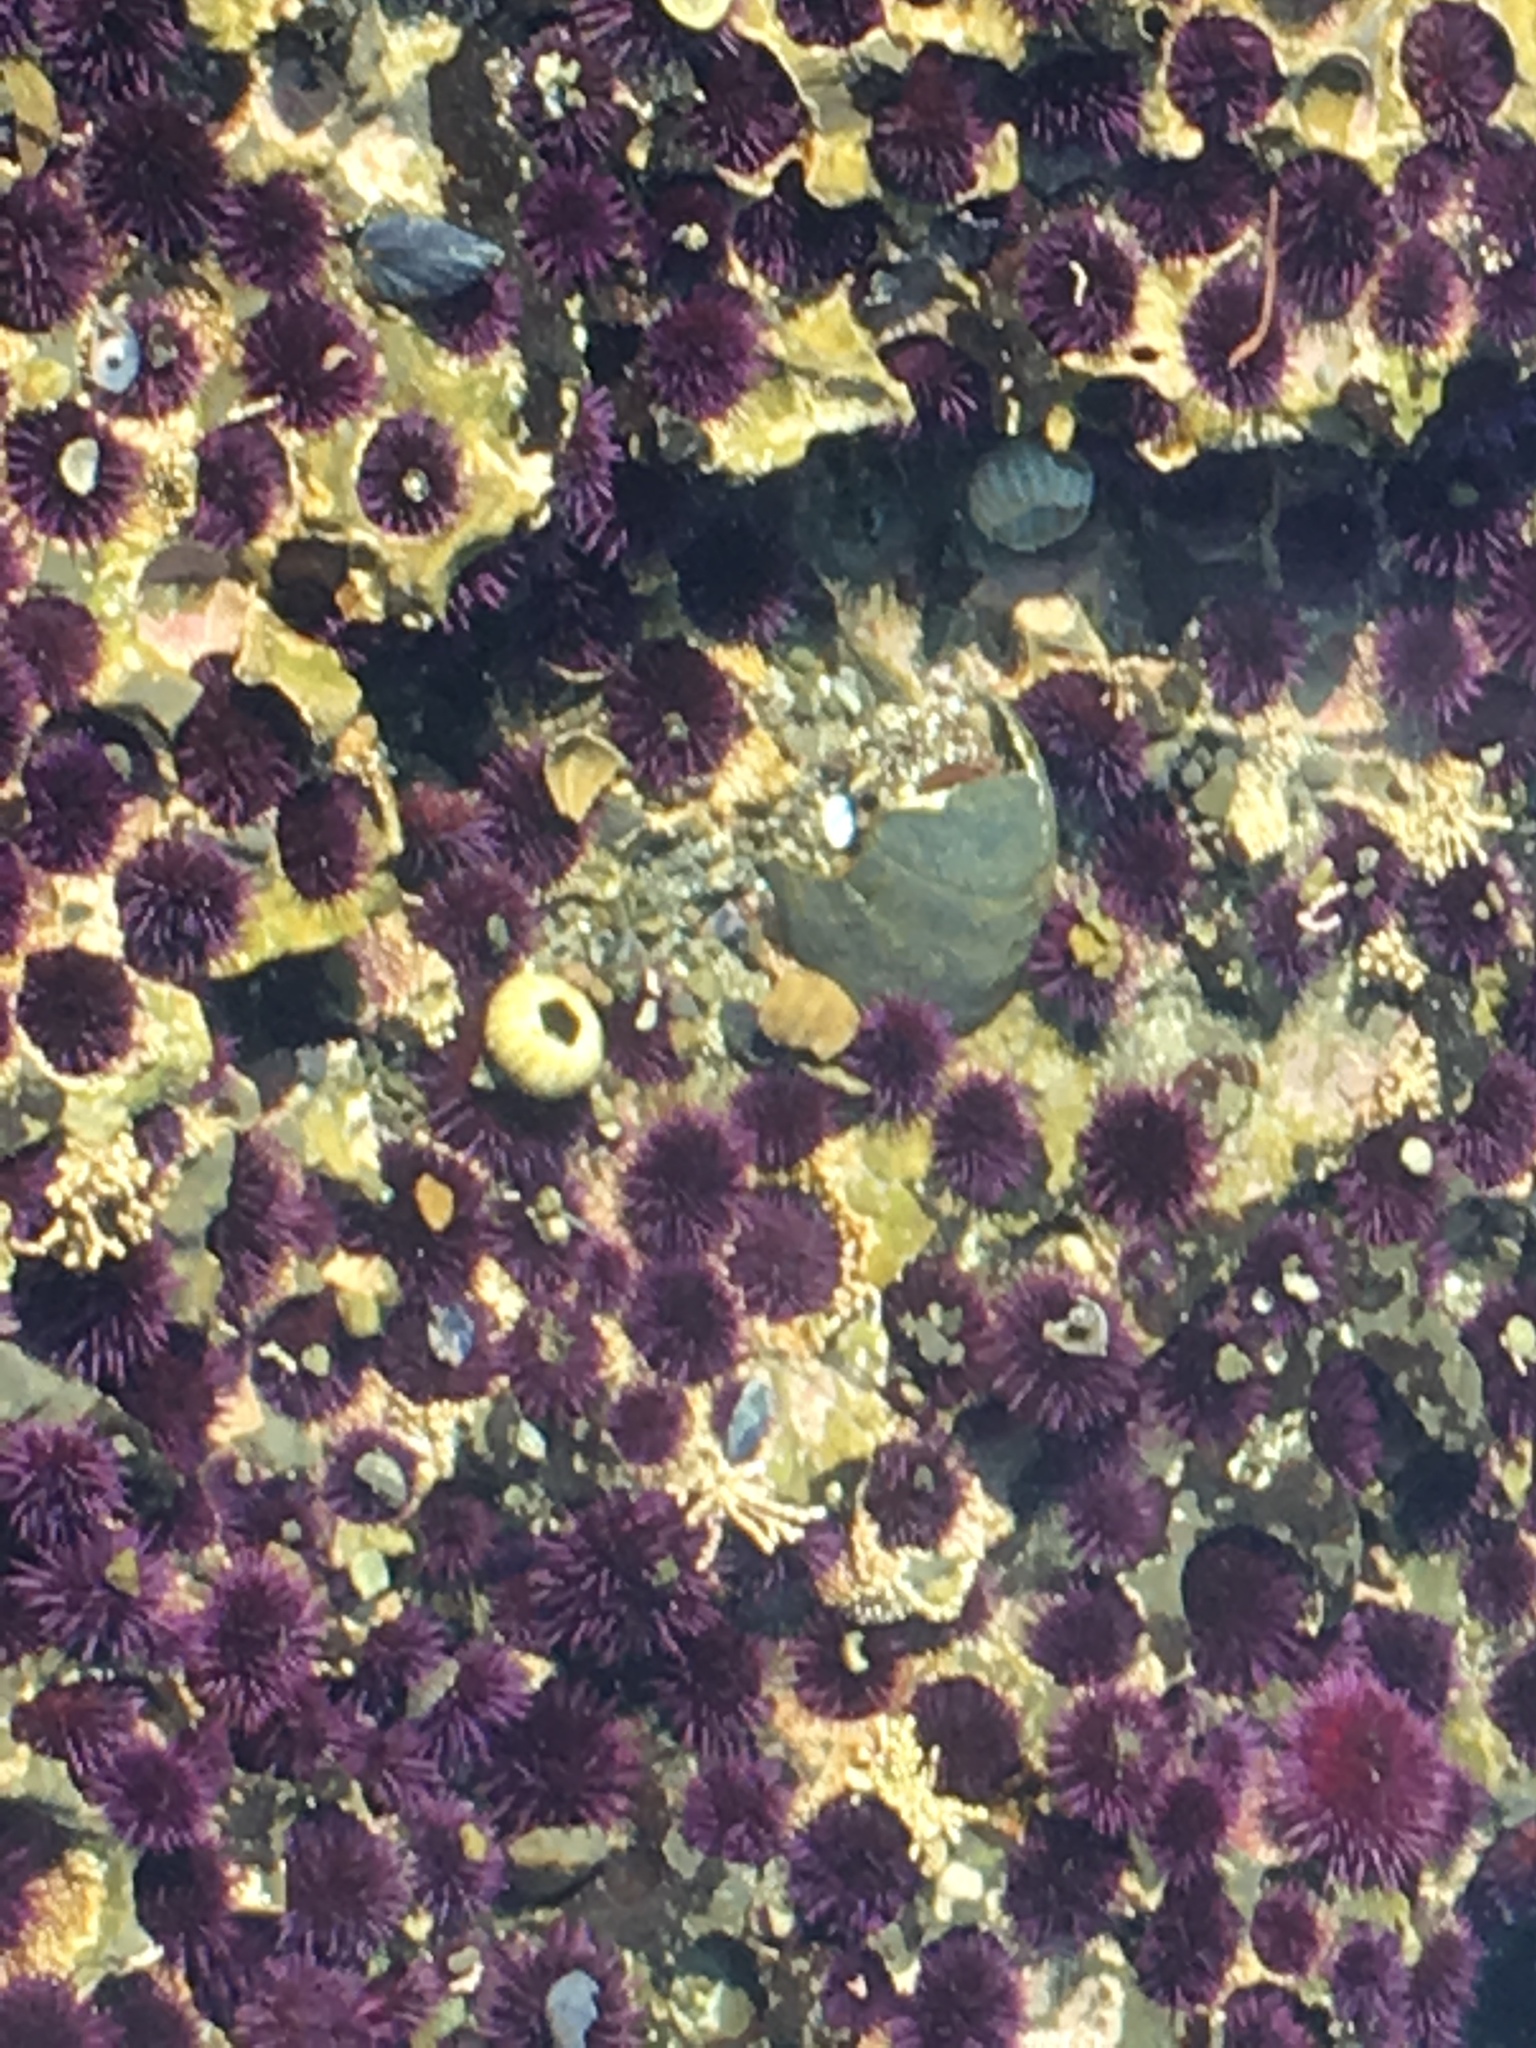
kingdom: Animalia
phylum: Echinodermata
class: Echinoidea
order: Camarodonta
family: Strongylocentrotidae
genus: Strongylocentrotus
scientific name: Strongylocentrotus purpuratus
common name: Purple sea urchin
